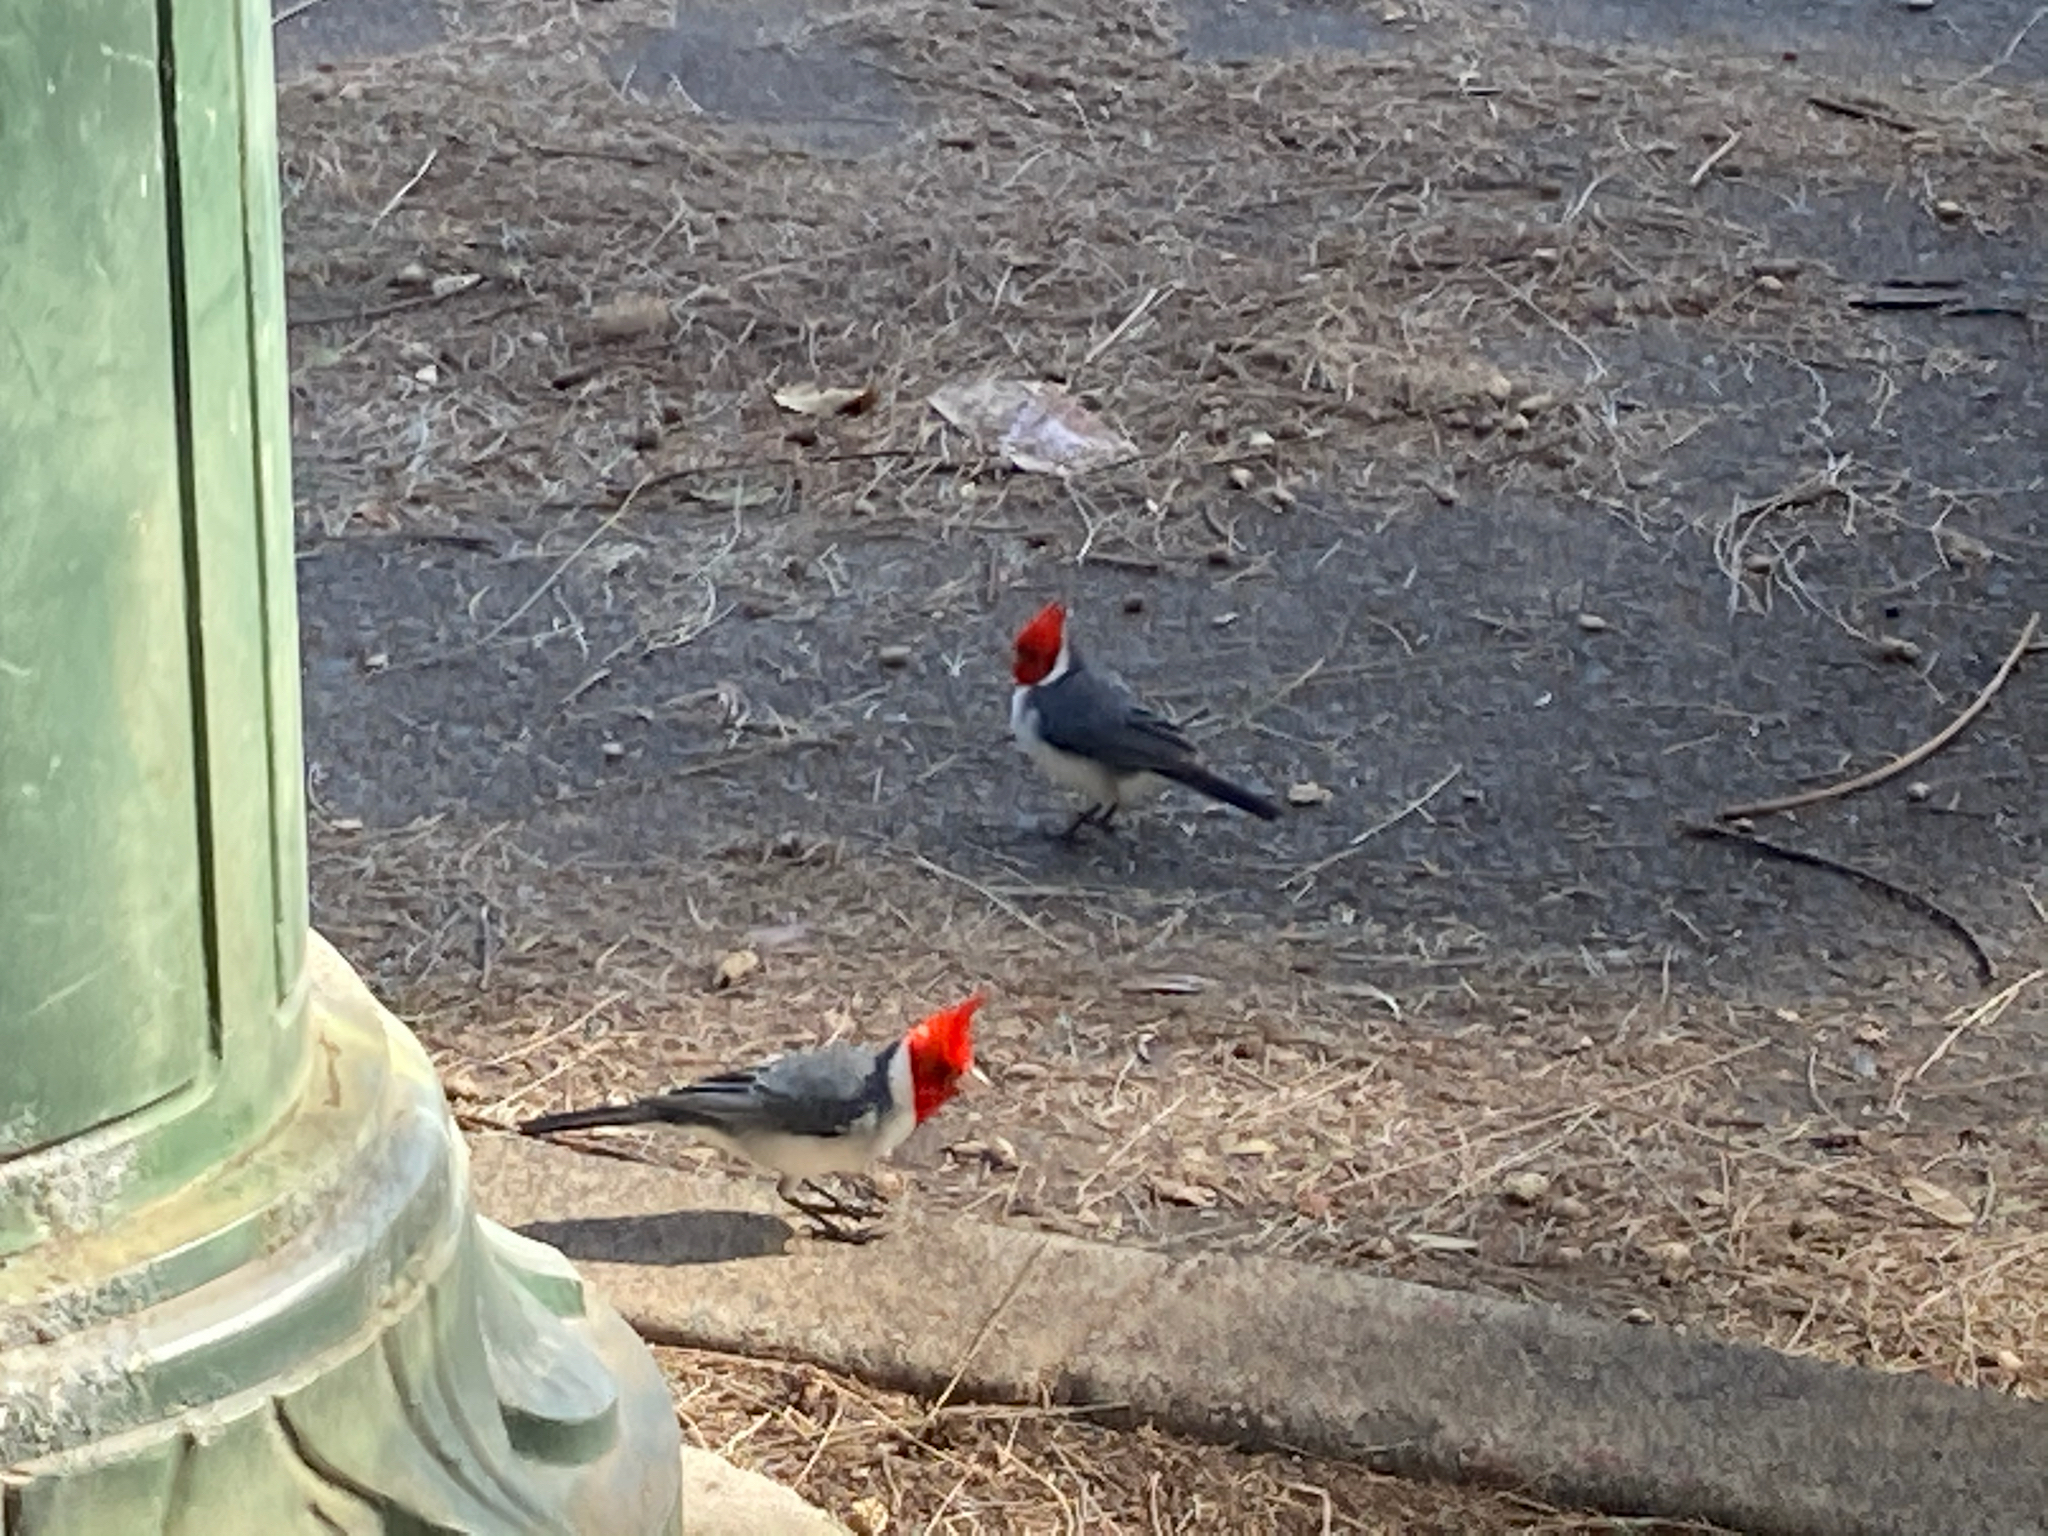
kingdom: Animalia
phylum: Chordata
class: Aves
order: Passeriformes
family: Thraupidae
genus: Paroaria
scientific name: Paroaria coronata
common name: Red-crested cardinal
